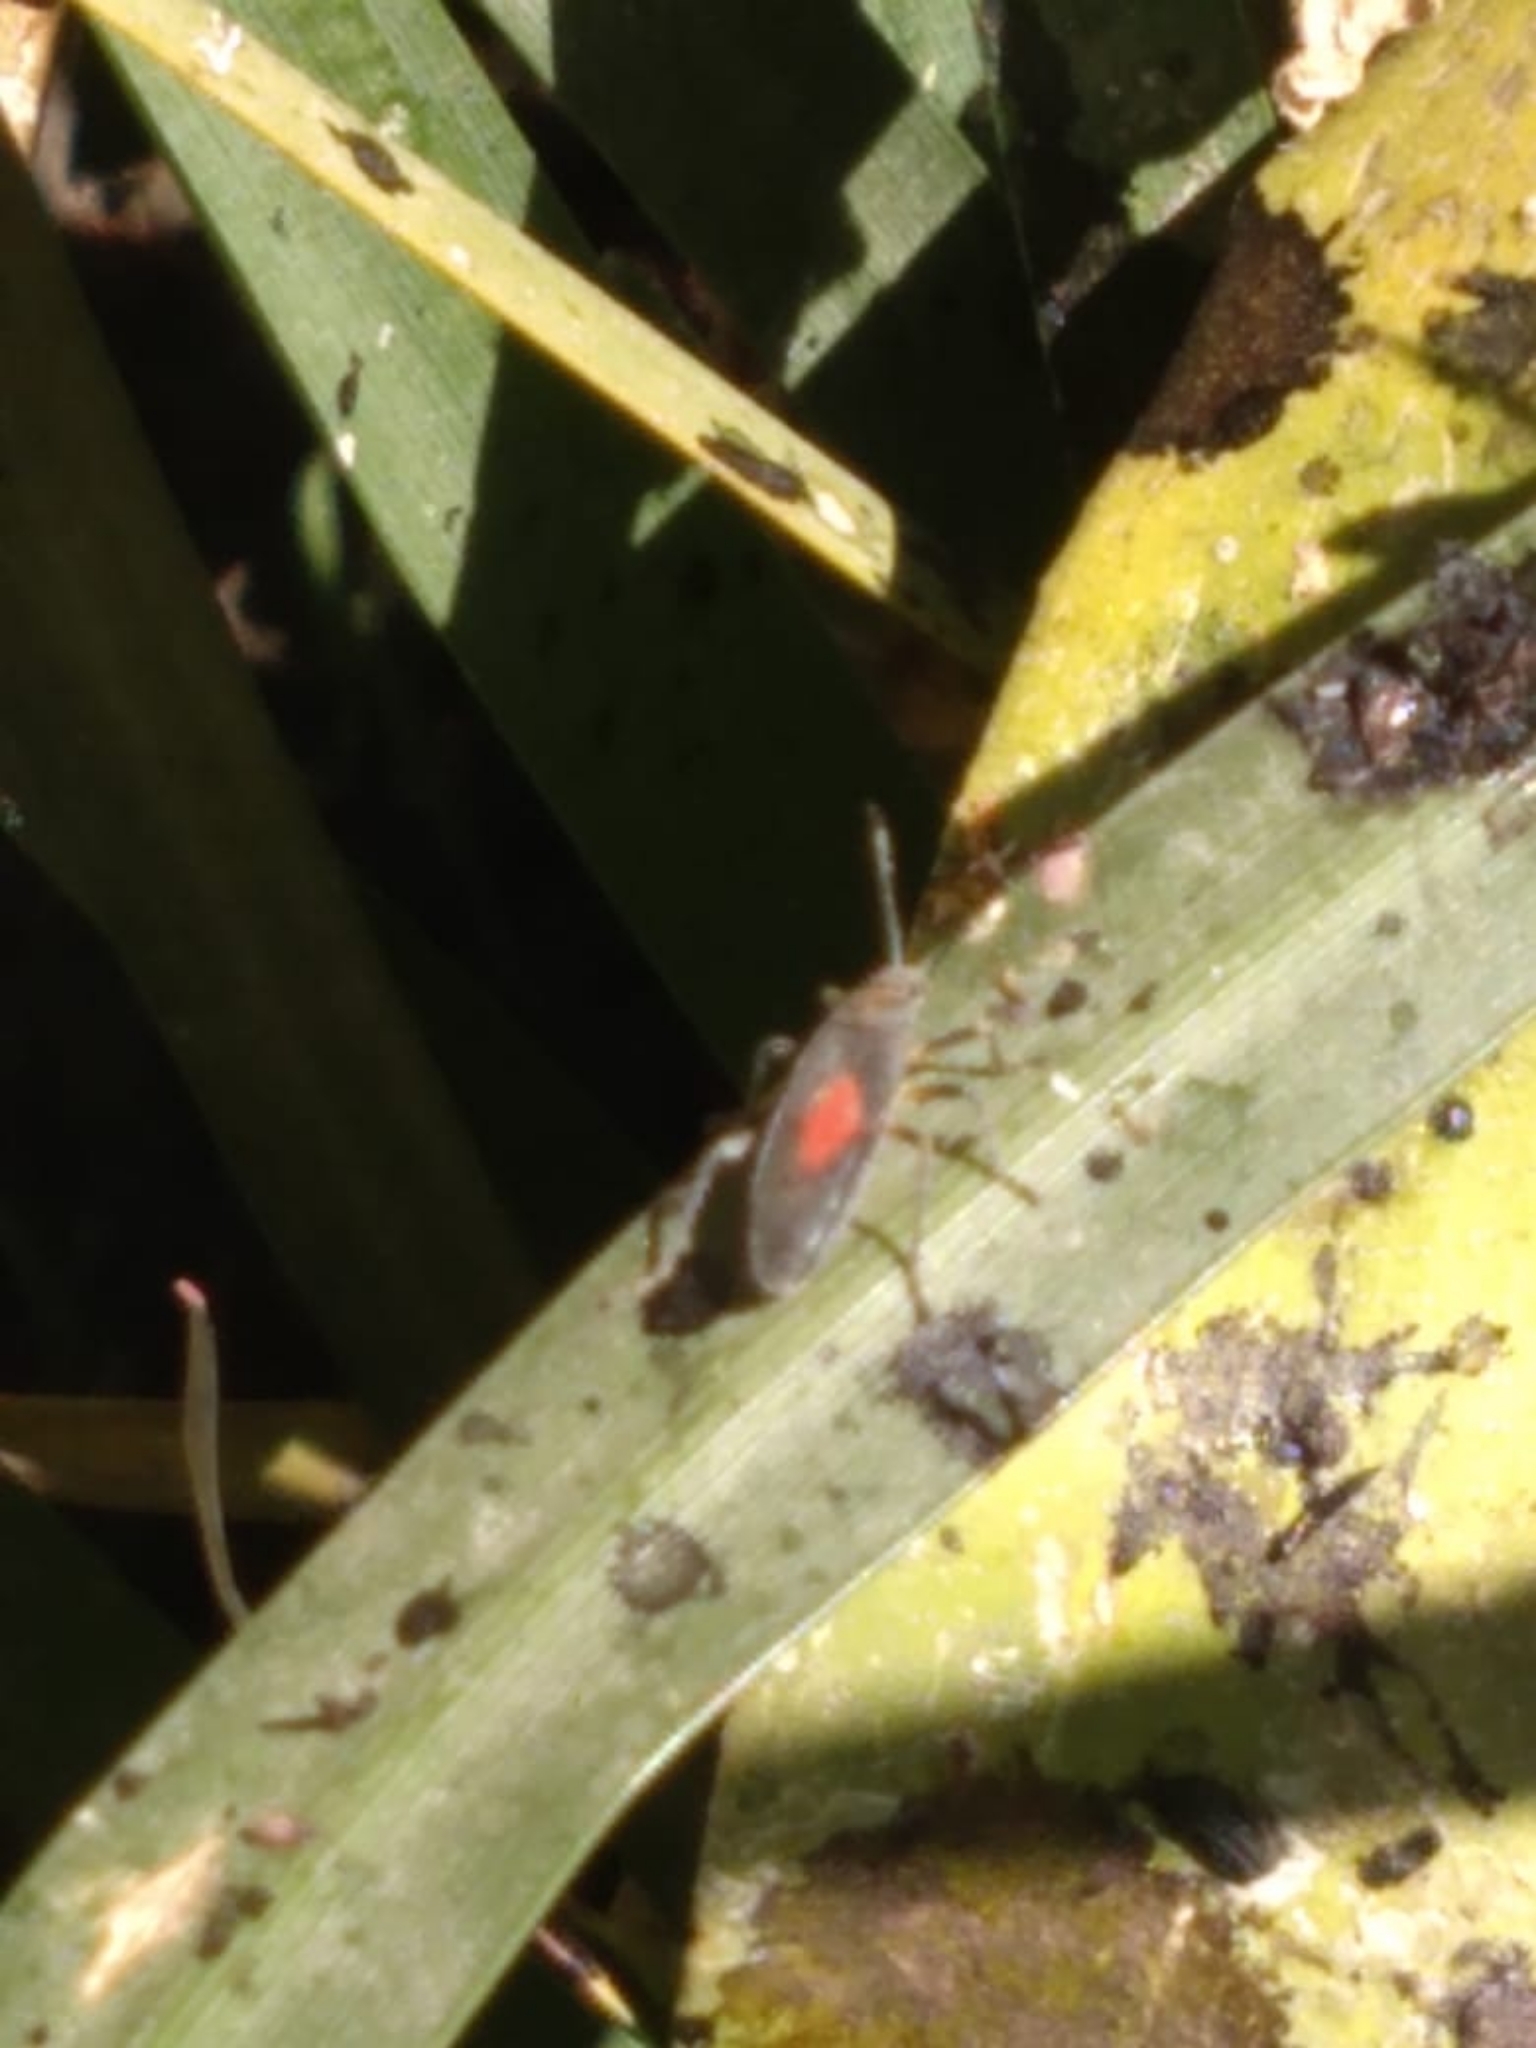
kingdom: Animalia
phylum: Arthropoda
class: Insecta
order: Hemiptera
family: Largidae
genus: Stenomacra
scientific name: Stenomacra marginella
